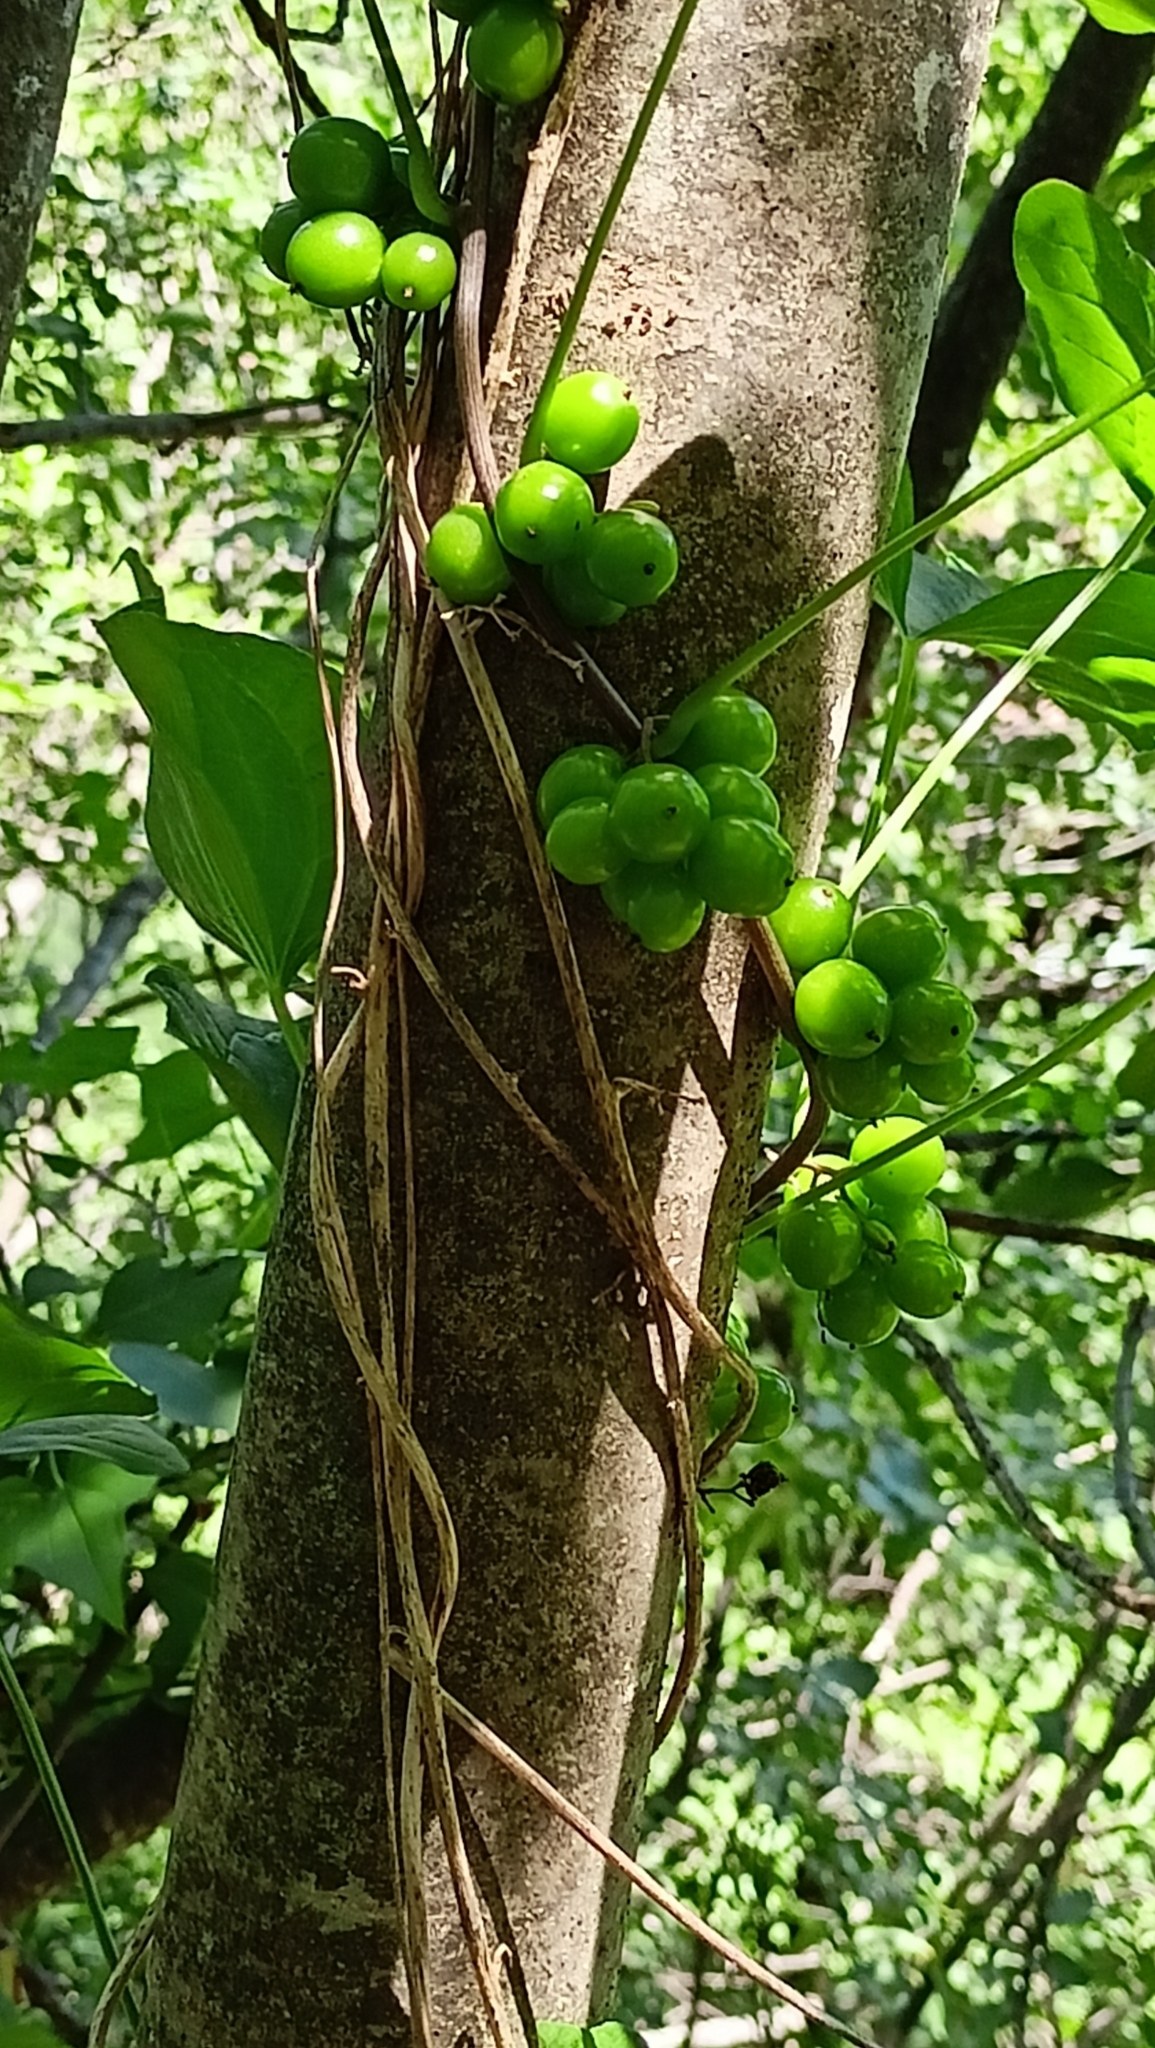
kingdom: Plantae
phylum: Tracheophyta
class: Liliopsida
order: Dioscoreales
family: Dioscoreaceae
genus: Dioscorea
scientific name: Dioscorea communis
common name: Black-bindweed
